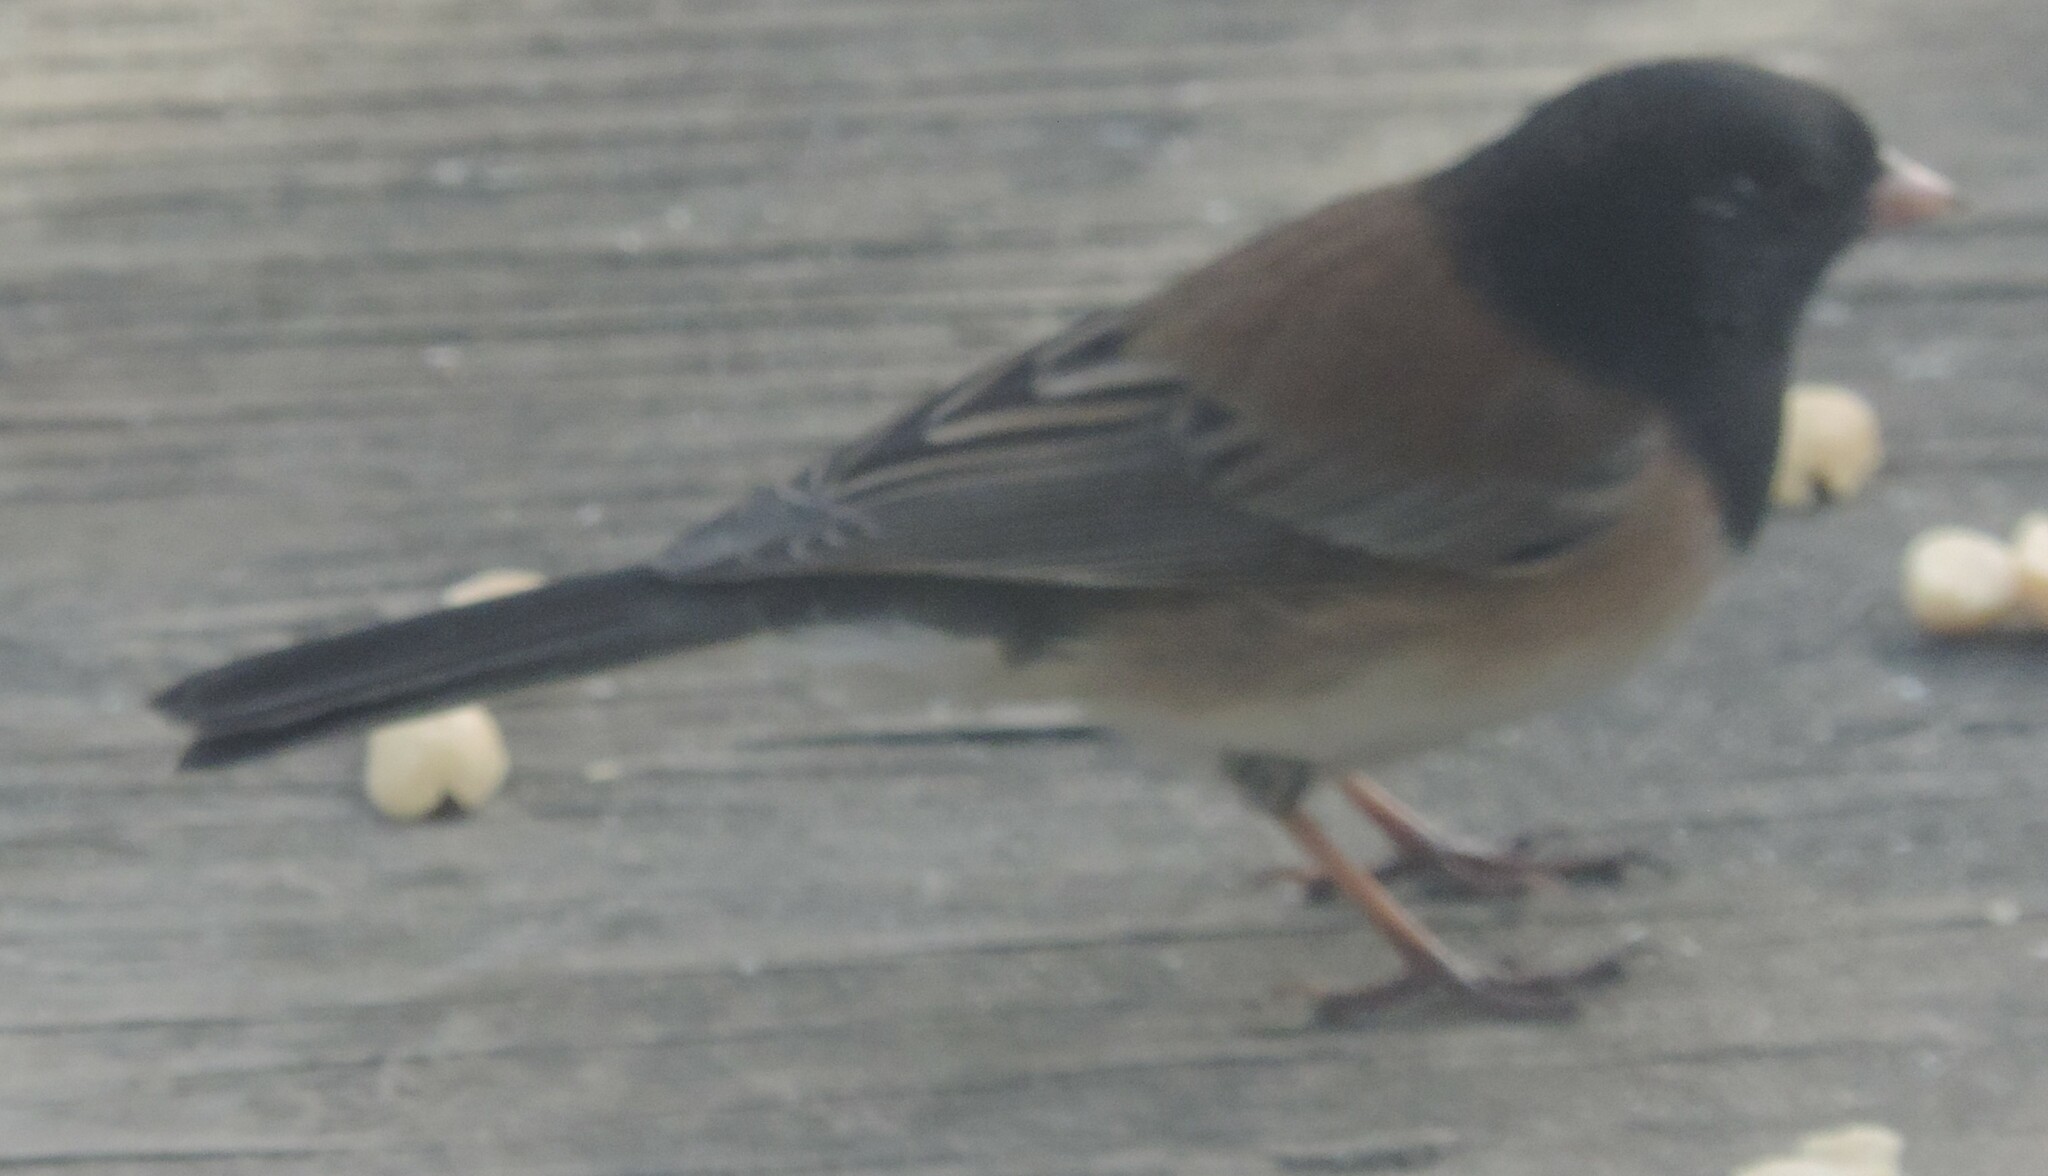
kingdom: Animalia
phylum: Chordata
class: Aves
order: Passeriformes
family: Passerellidae
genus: Junco
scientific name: Junco hyemalis
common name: Dark-eyed junco
